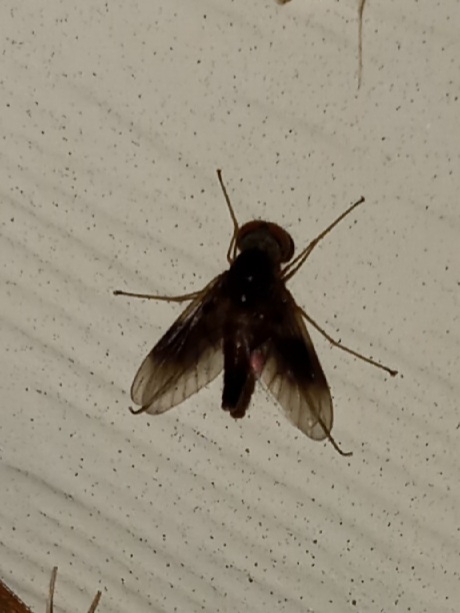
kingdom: Animalia
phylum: Arthropoda
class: Insecta
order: Diptera
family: Rhagionidae
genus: Chrysopilus
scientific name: Chrysopilus quadratus
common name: Quadrate snipe fly
